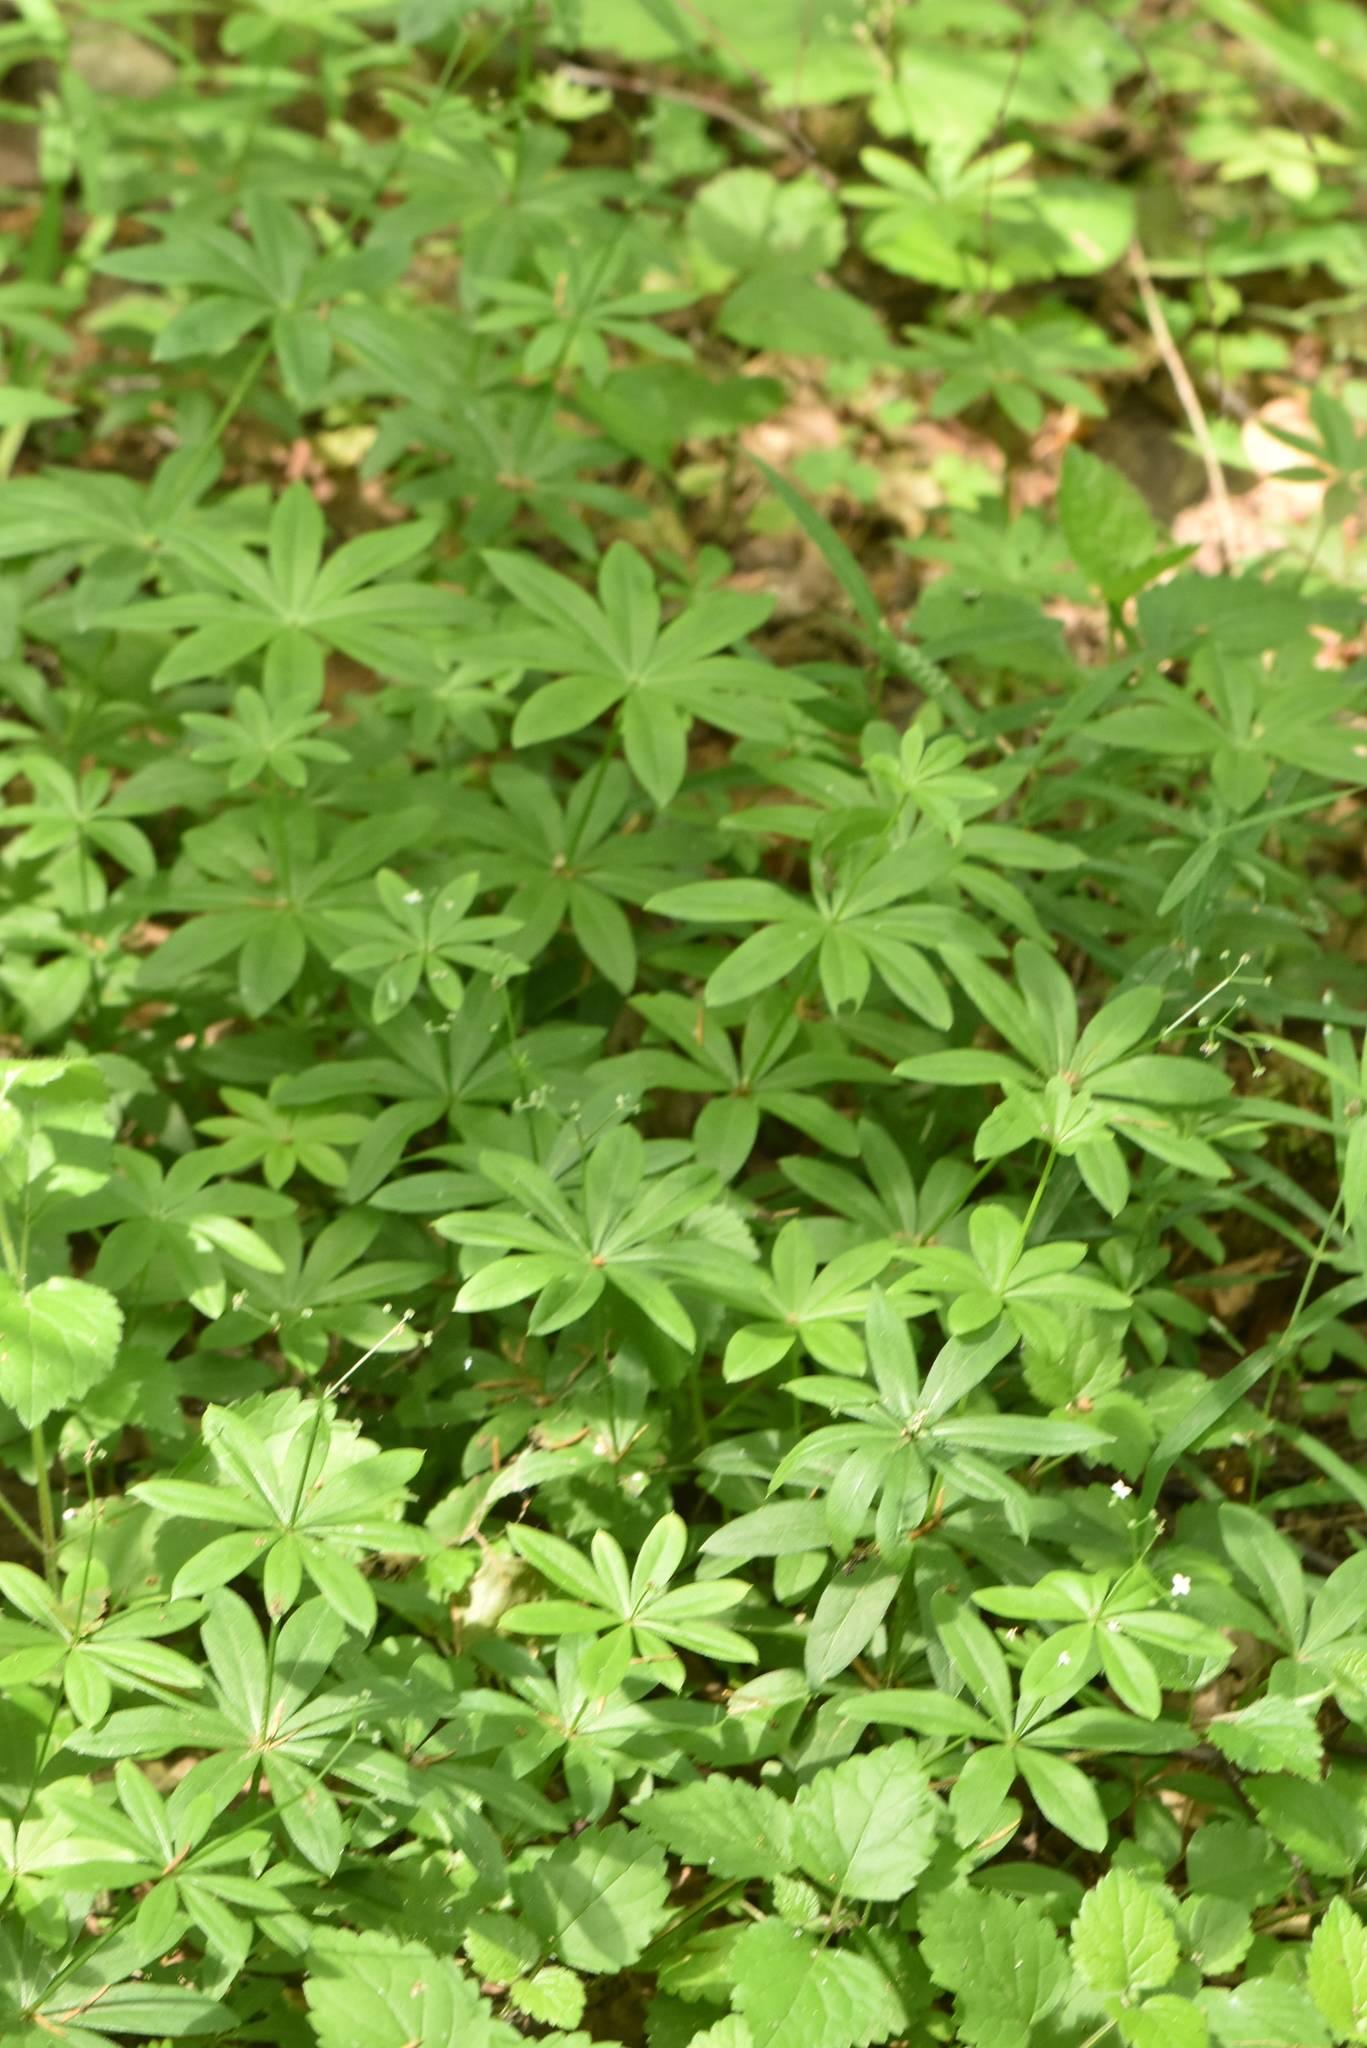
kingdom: Plantae
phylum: Tracheophyta
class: Magnoliopsida
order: Gentianales
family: Rubiaceae
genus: Galium
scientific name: Galium odoratum
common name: Sweet woodruff
